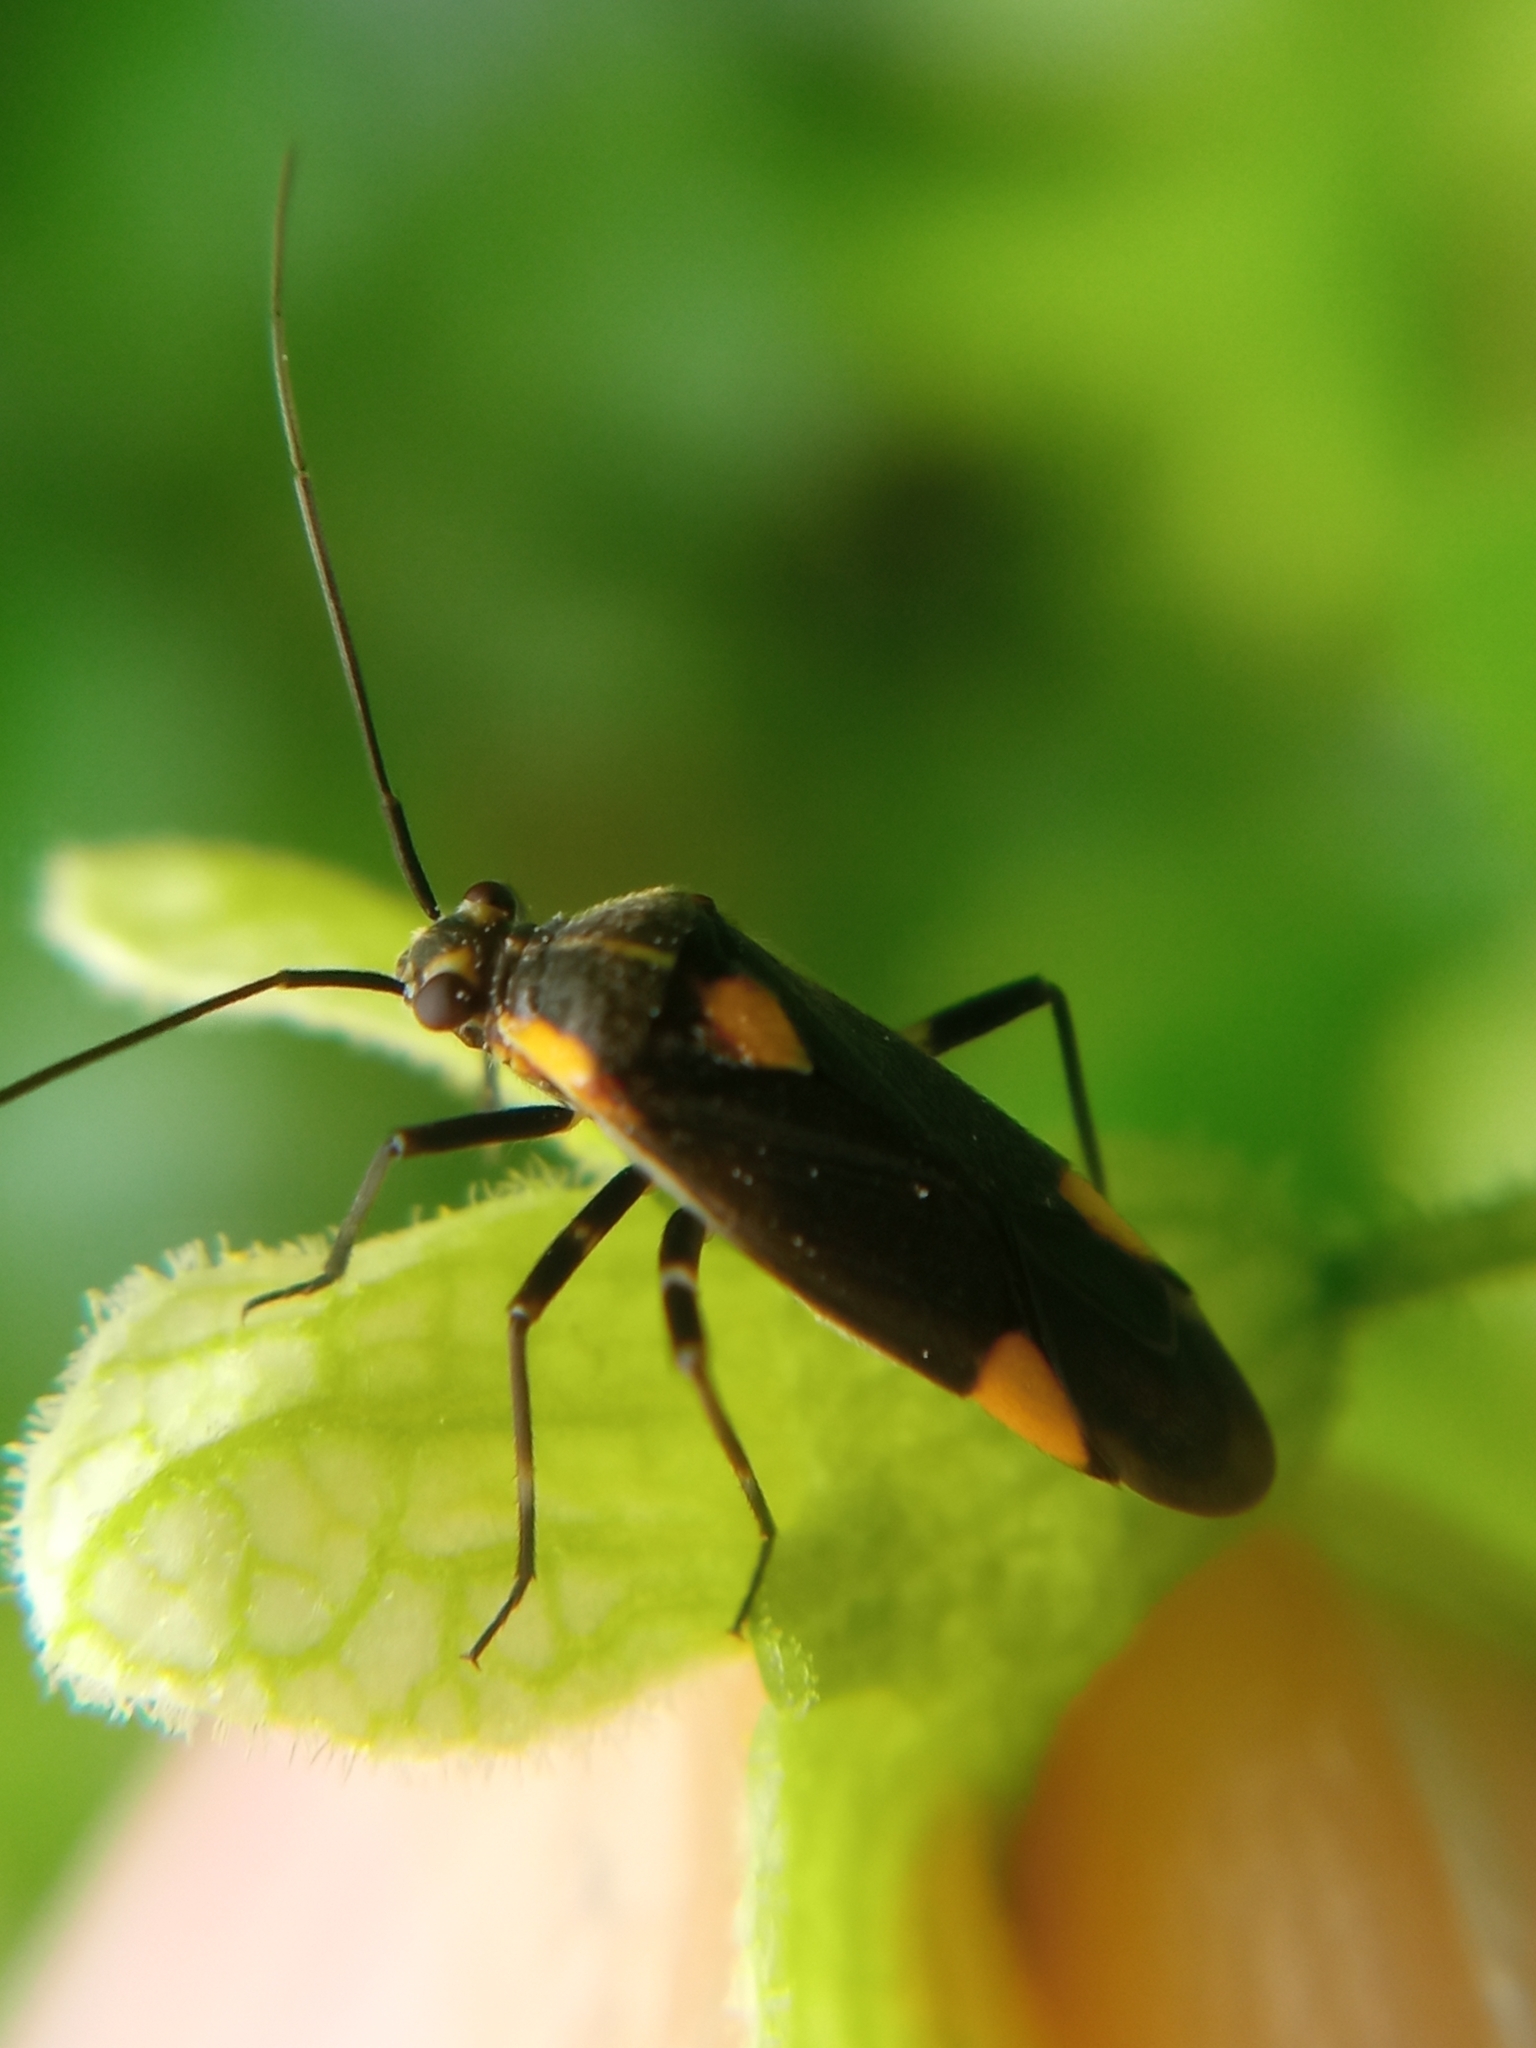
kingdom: Animalia
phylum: Arthropoda
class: Insecta
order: Hemiptera
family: Miridae
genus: Capsodes
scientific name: Capsodes flavomarginatus
